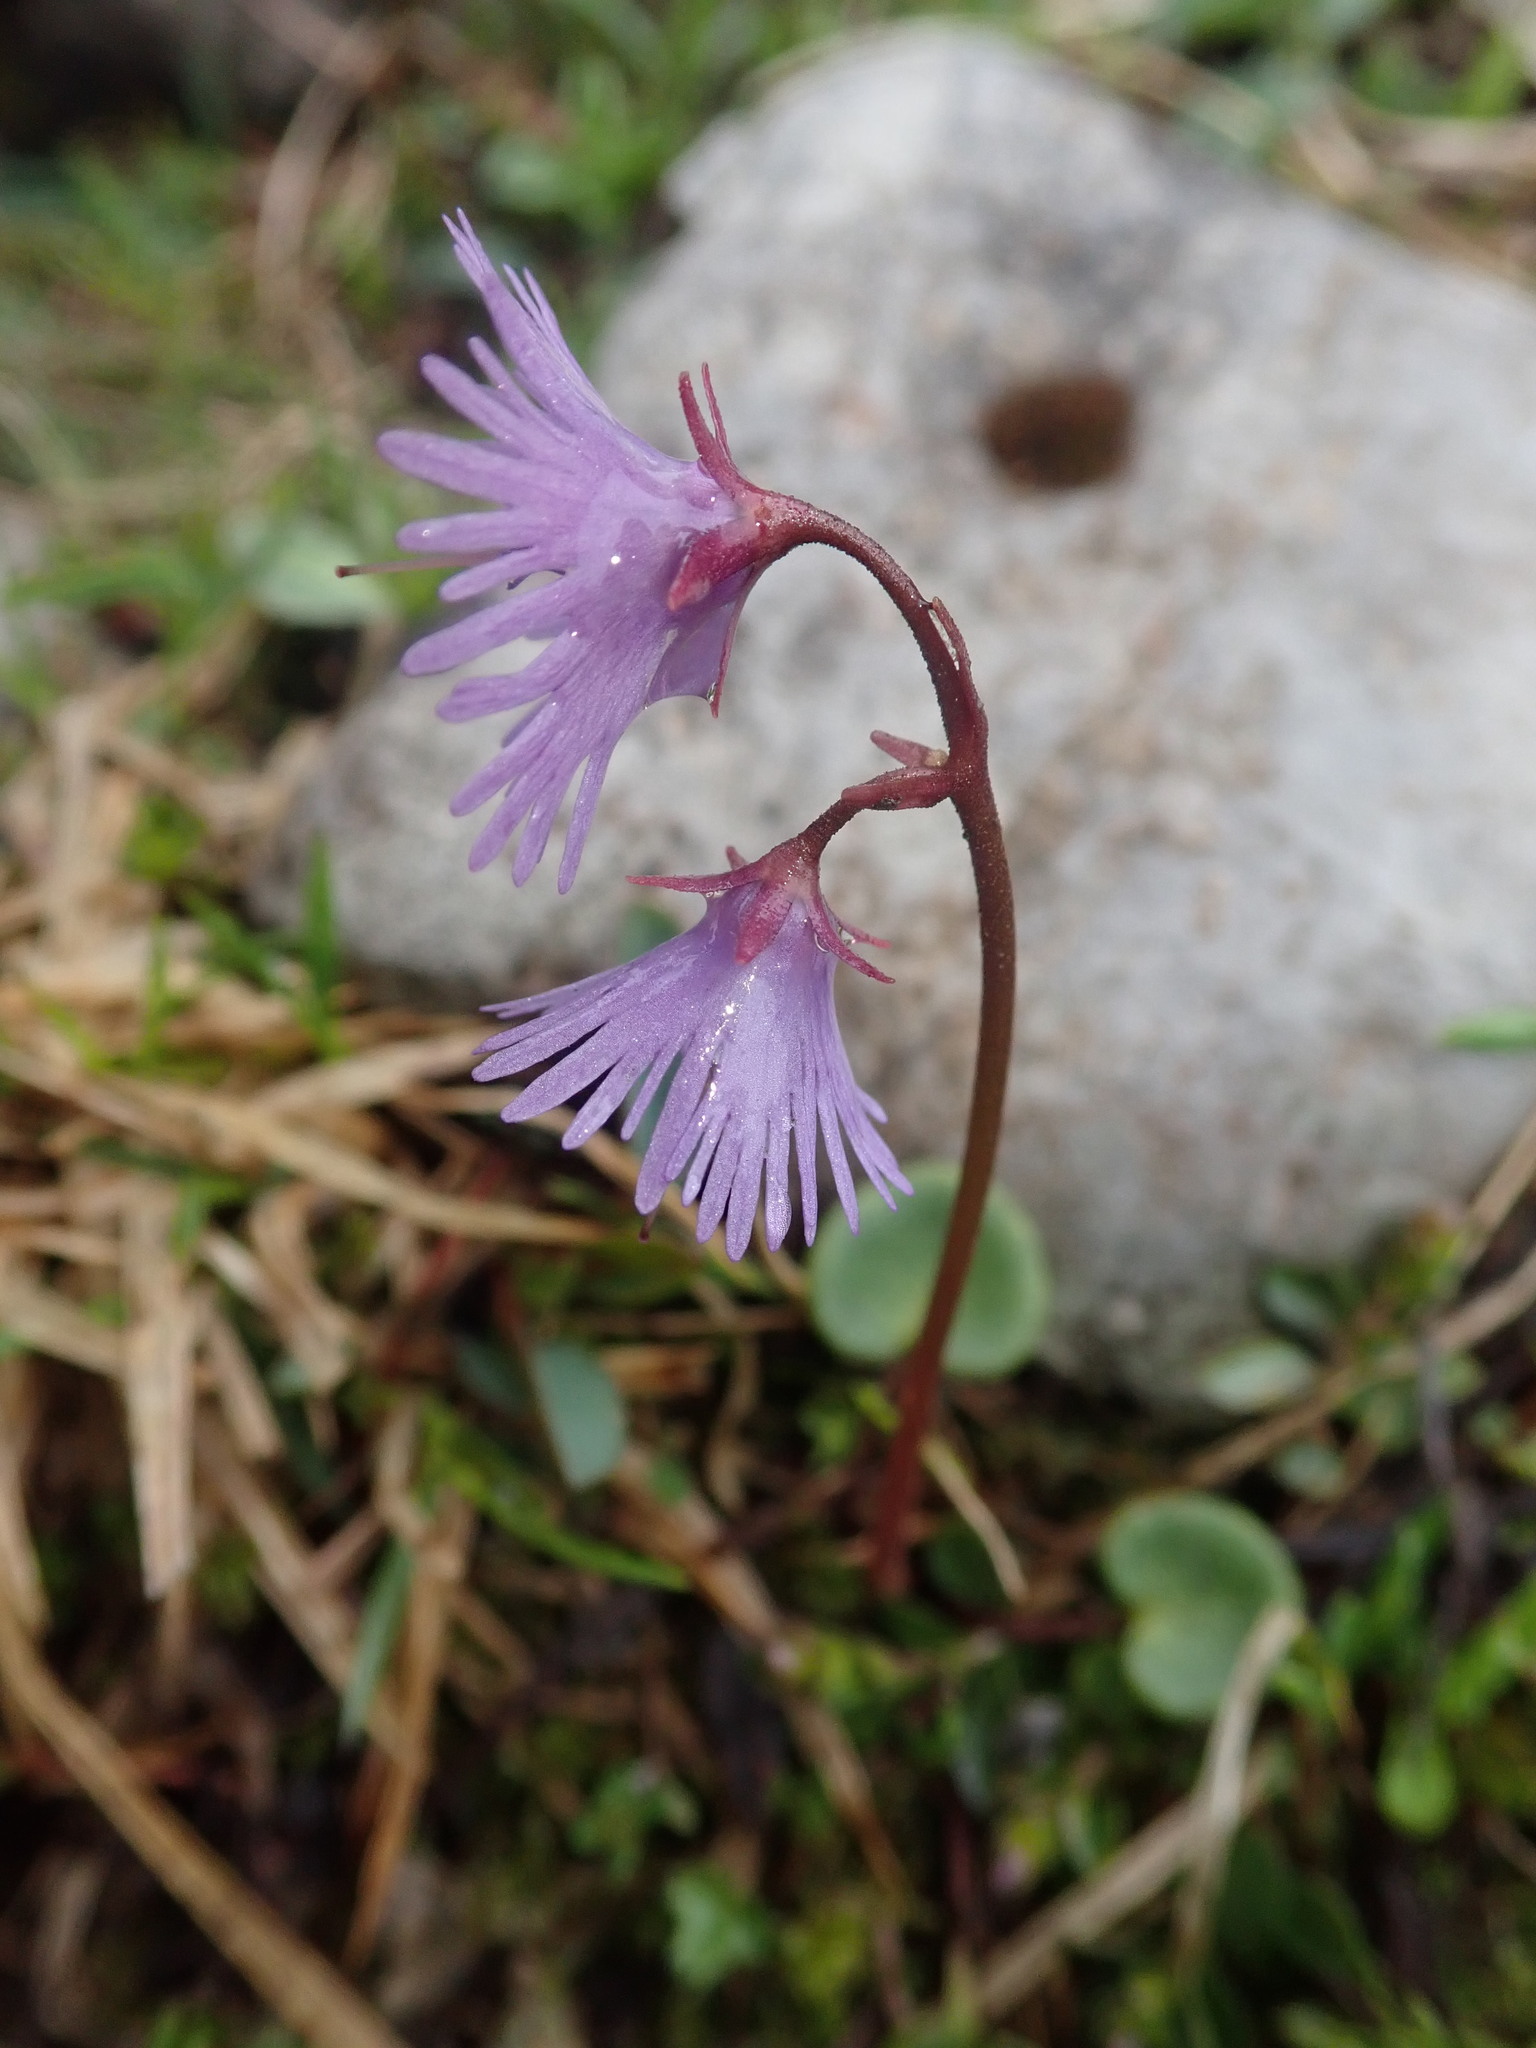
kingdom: Plantae
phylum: Tracheophyta
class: Magnoliopsida
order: Ericales
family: Primulaceae
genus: Soldanella
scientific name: Soldanella alpina
